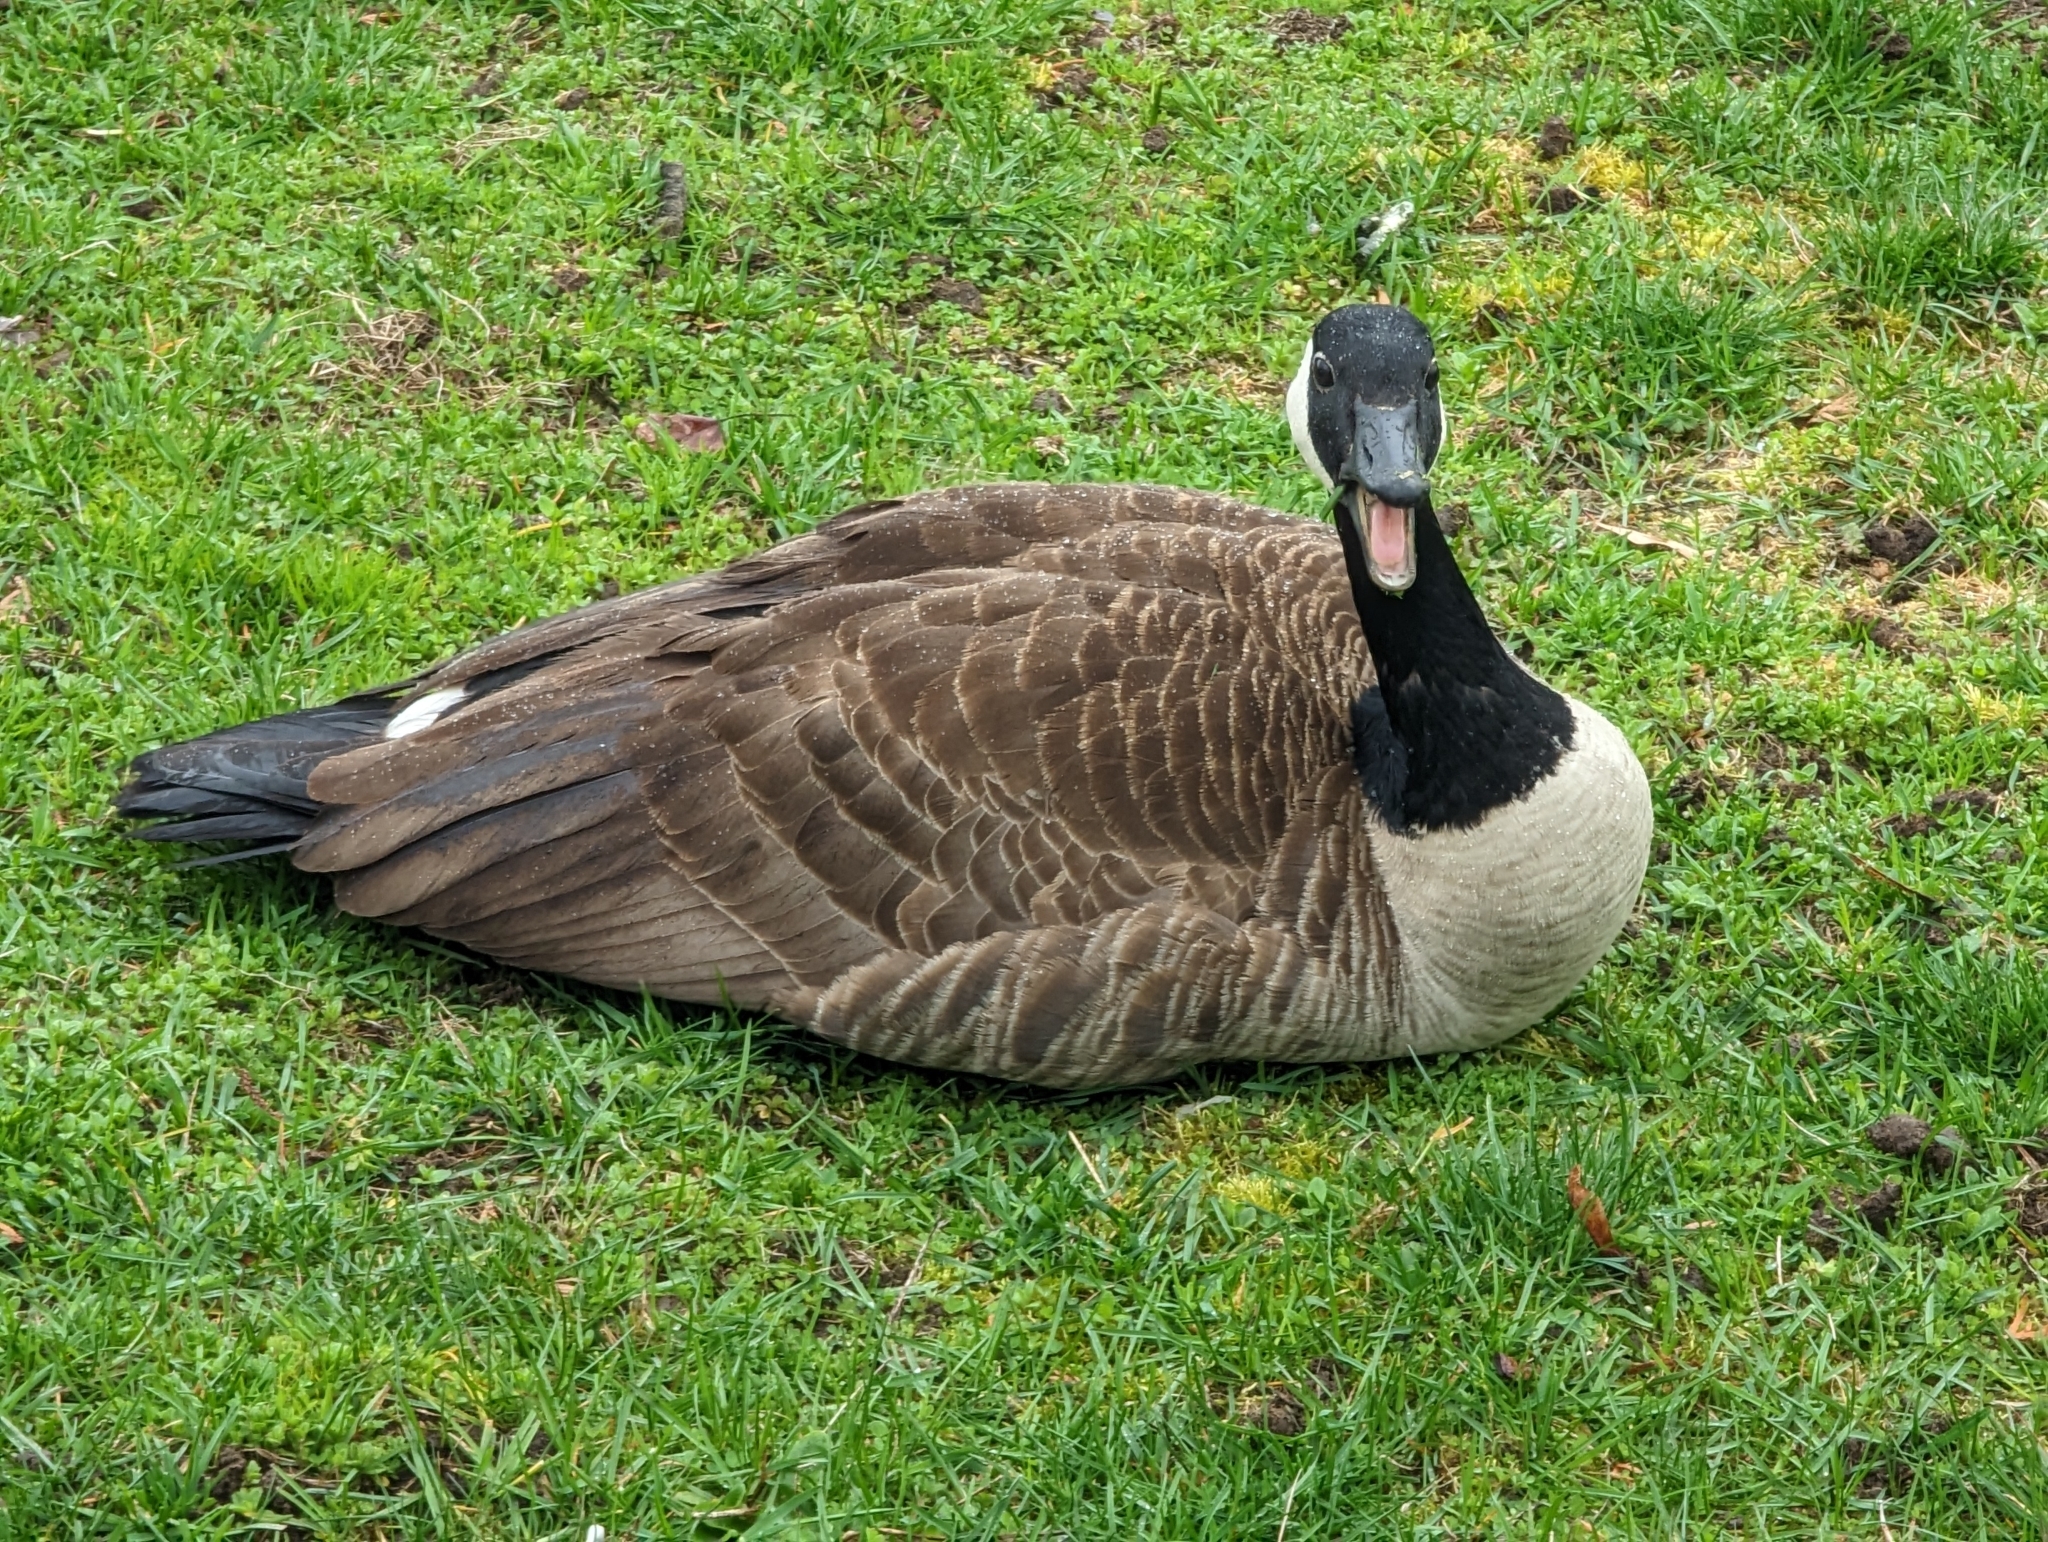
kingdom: Animalia
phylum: Chordata
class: Aves
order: Anseriformes
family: Anatidae
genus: Branta
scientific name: Branta canadensis
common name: Canada goose
